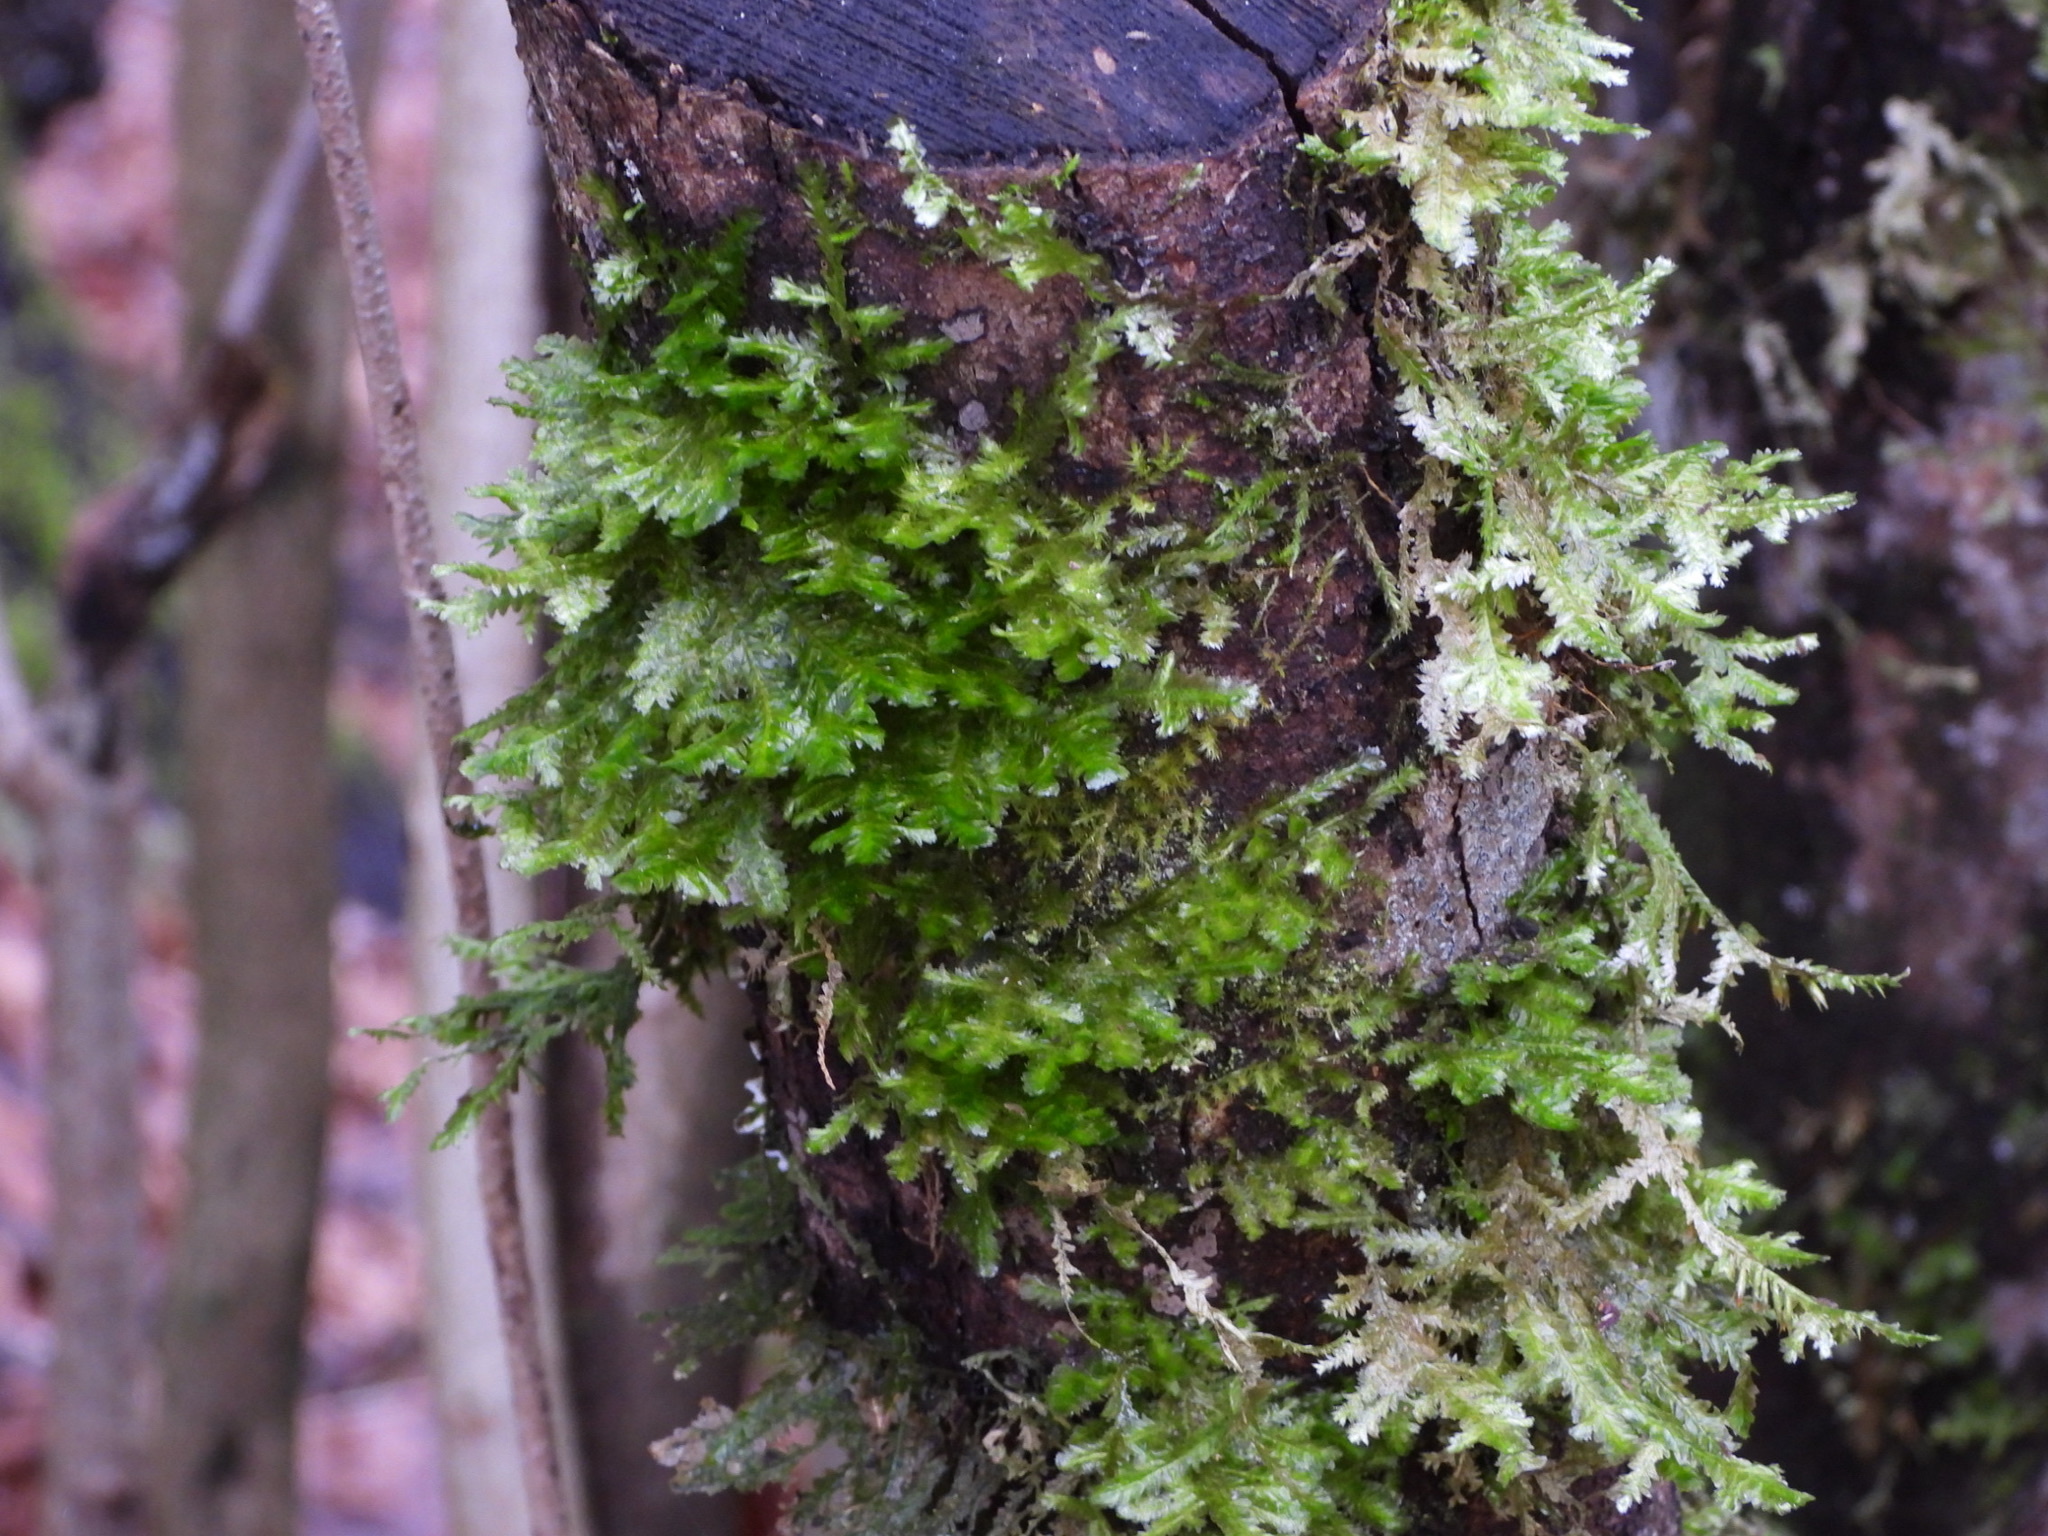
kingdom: Plantae
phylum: Bryophyta
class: Bryopsida
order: Hypnales
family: Neckeraceae
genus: Neckera
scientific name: Neckera douglasii
